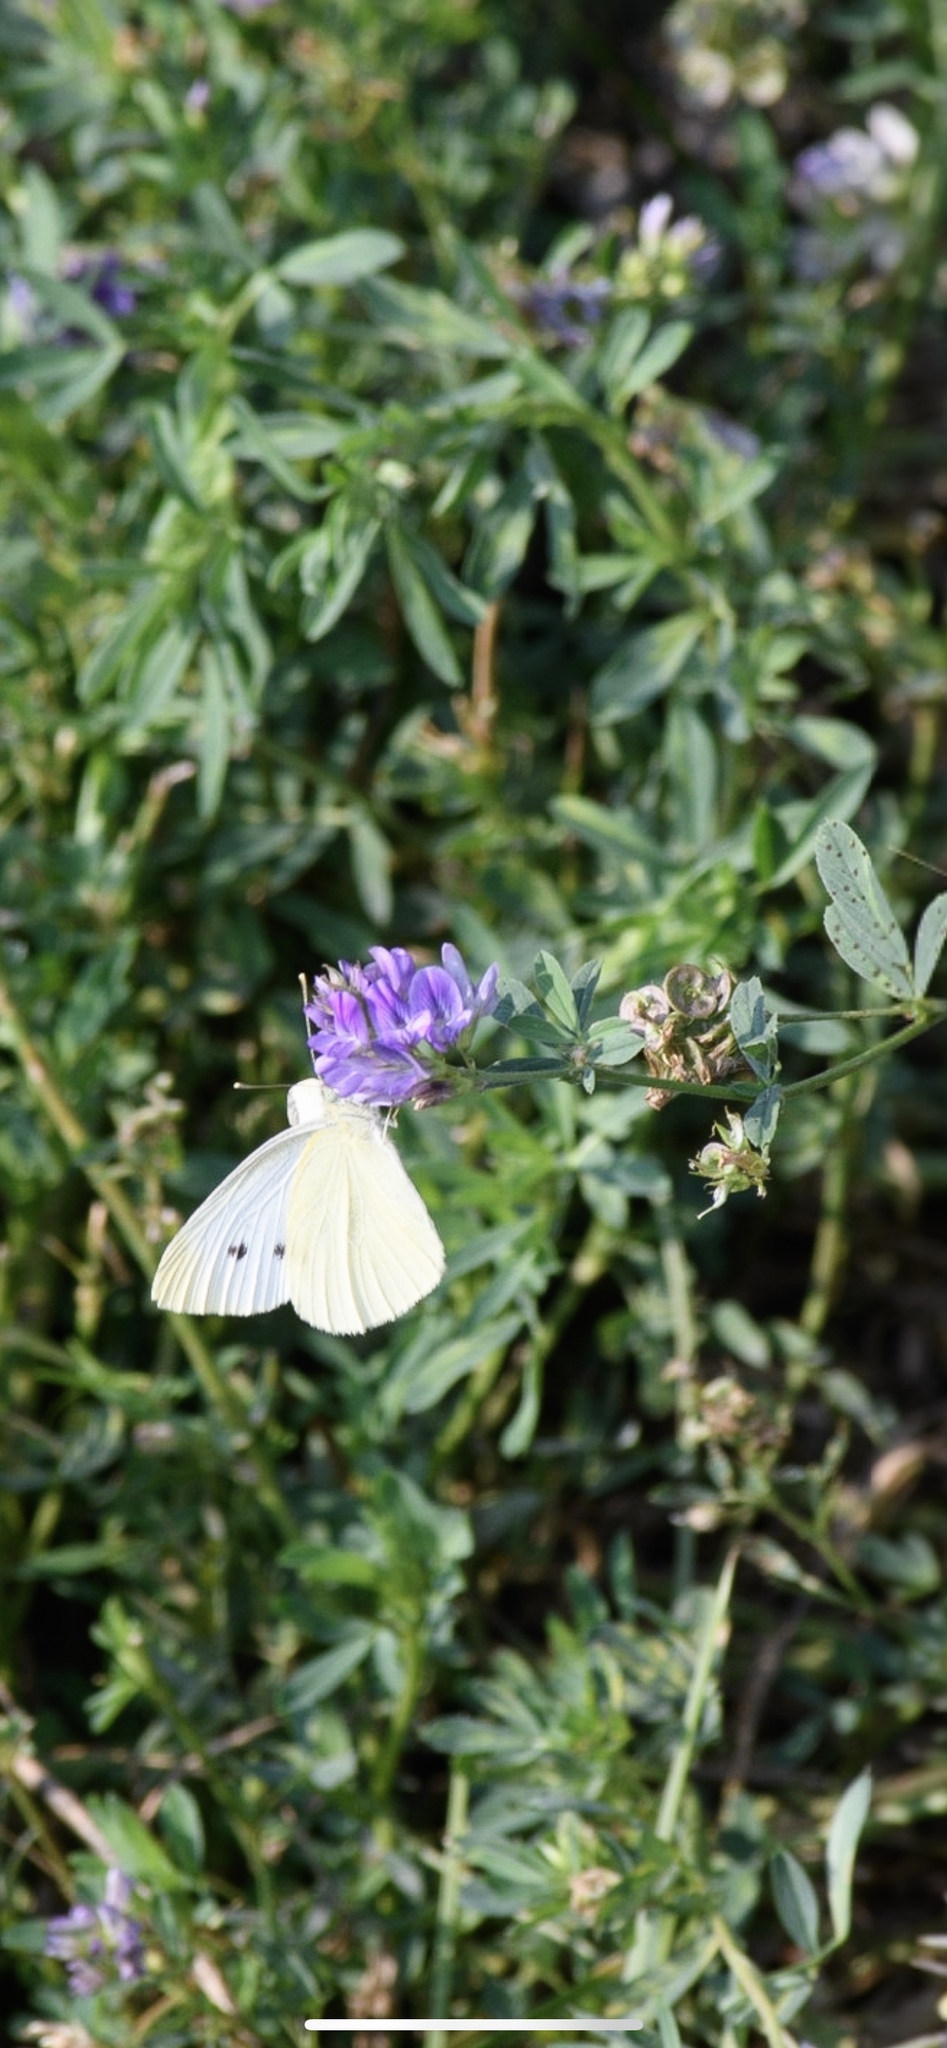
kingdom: Animalia
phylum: Arthropoda
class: Insecta
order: Lepidoptera
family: Pieridae
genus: Pieris
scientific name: Pieris rapae
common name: Small white
